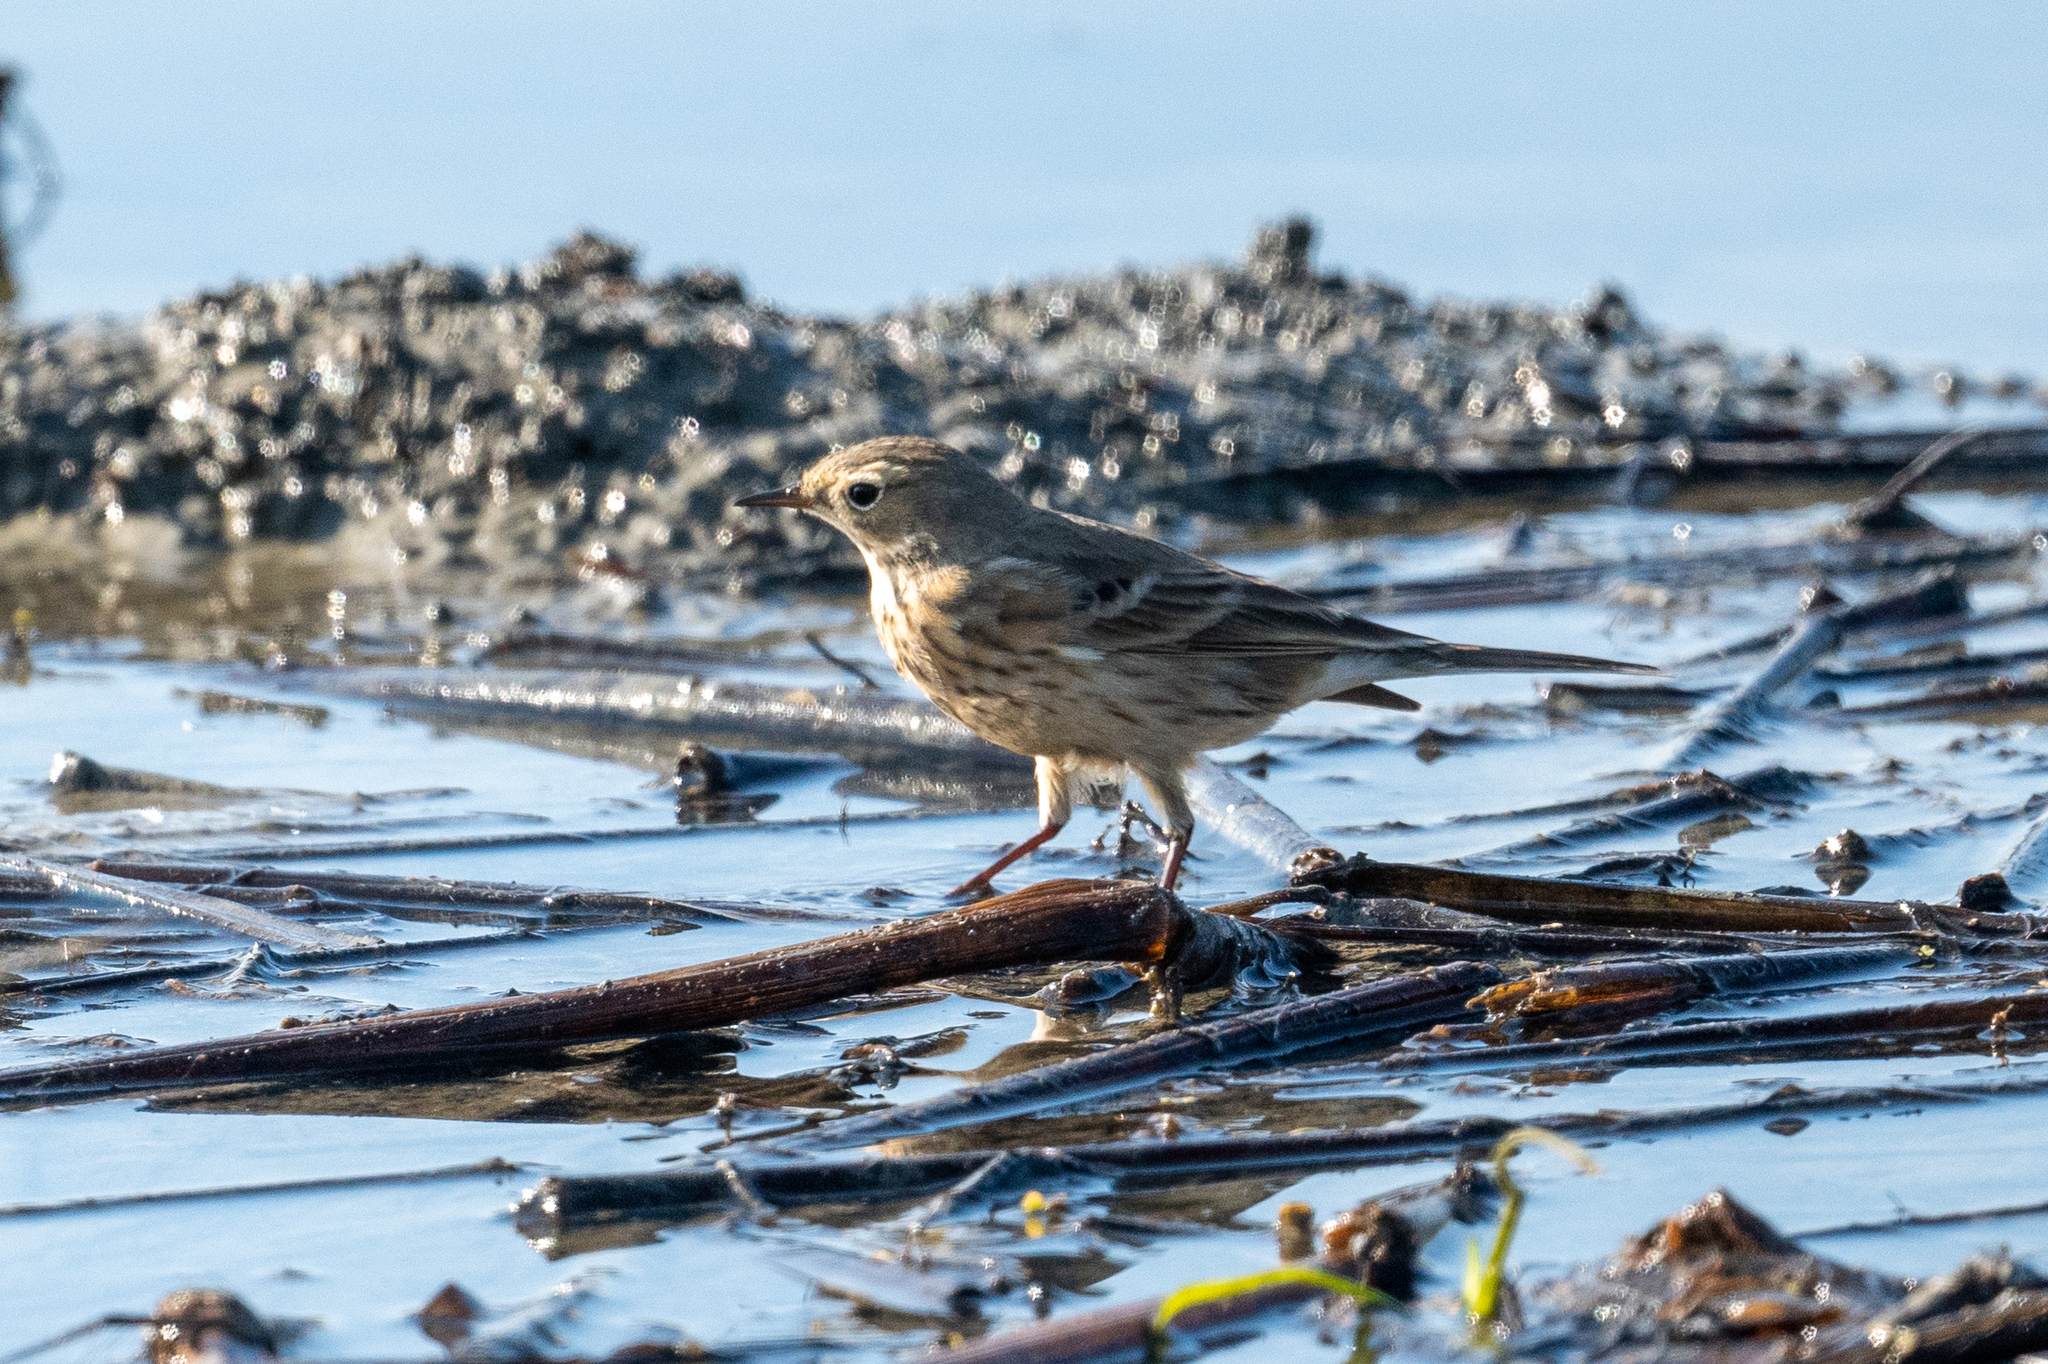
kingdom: Animalia
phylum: Chordata
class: Aves
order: Passeriformes
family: Motacillidae
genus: Anthus
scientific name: Anthus rubescens
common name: Buff-bellied pipit
